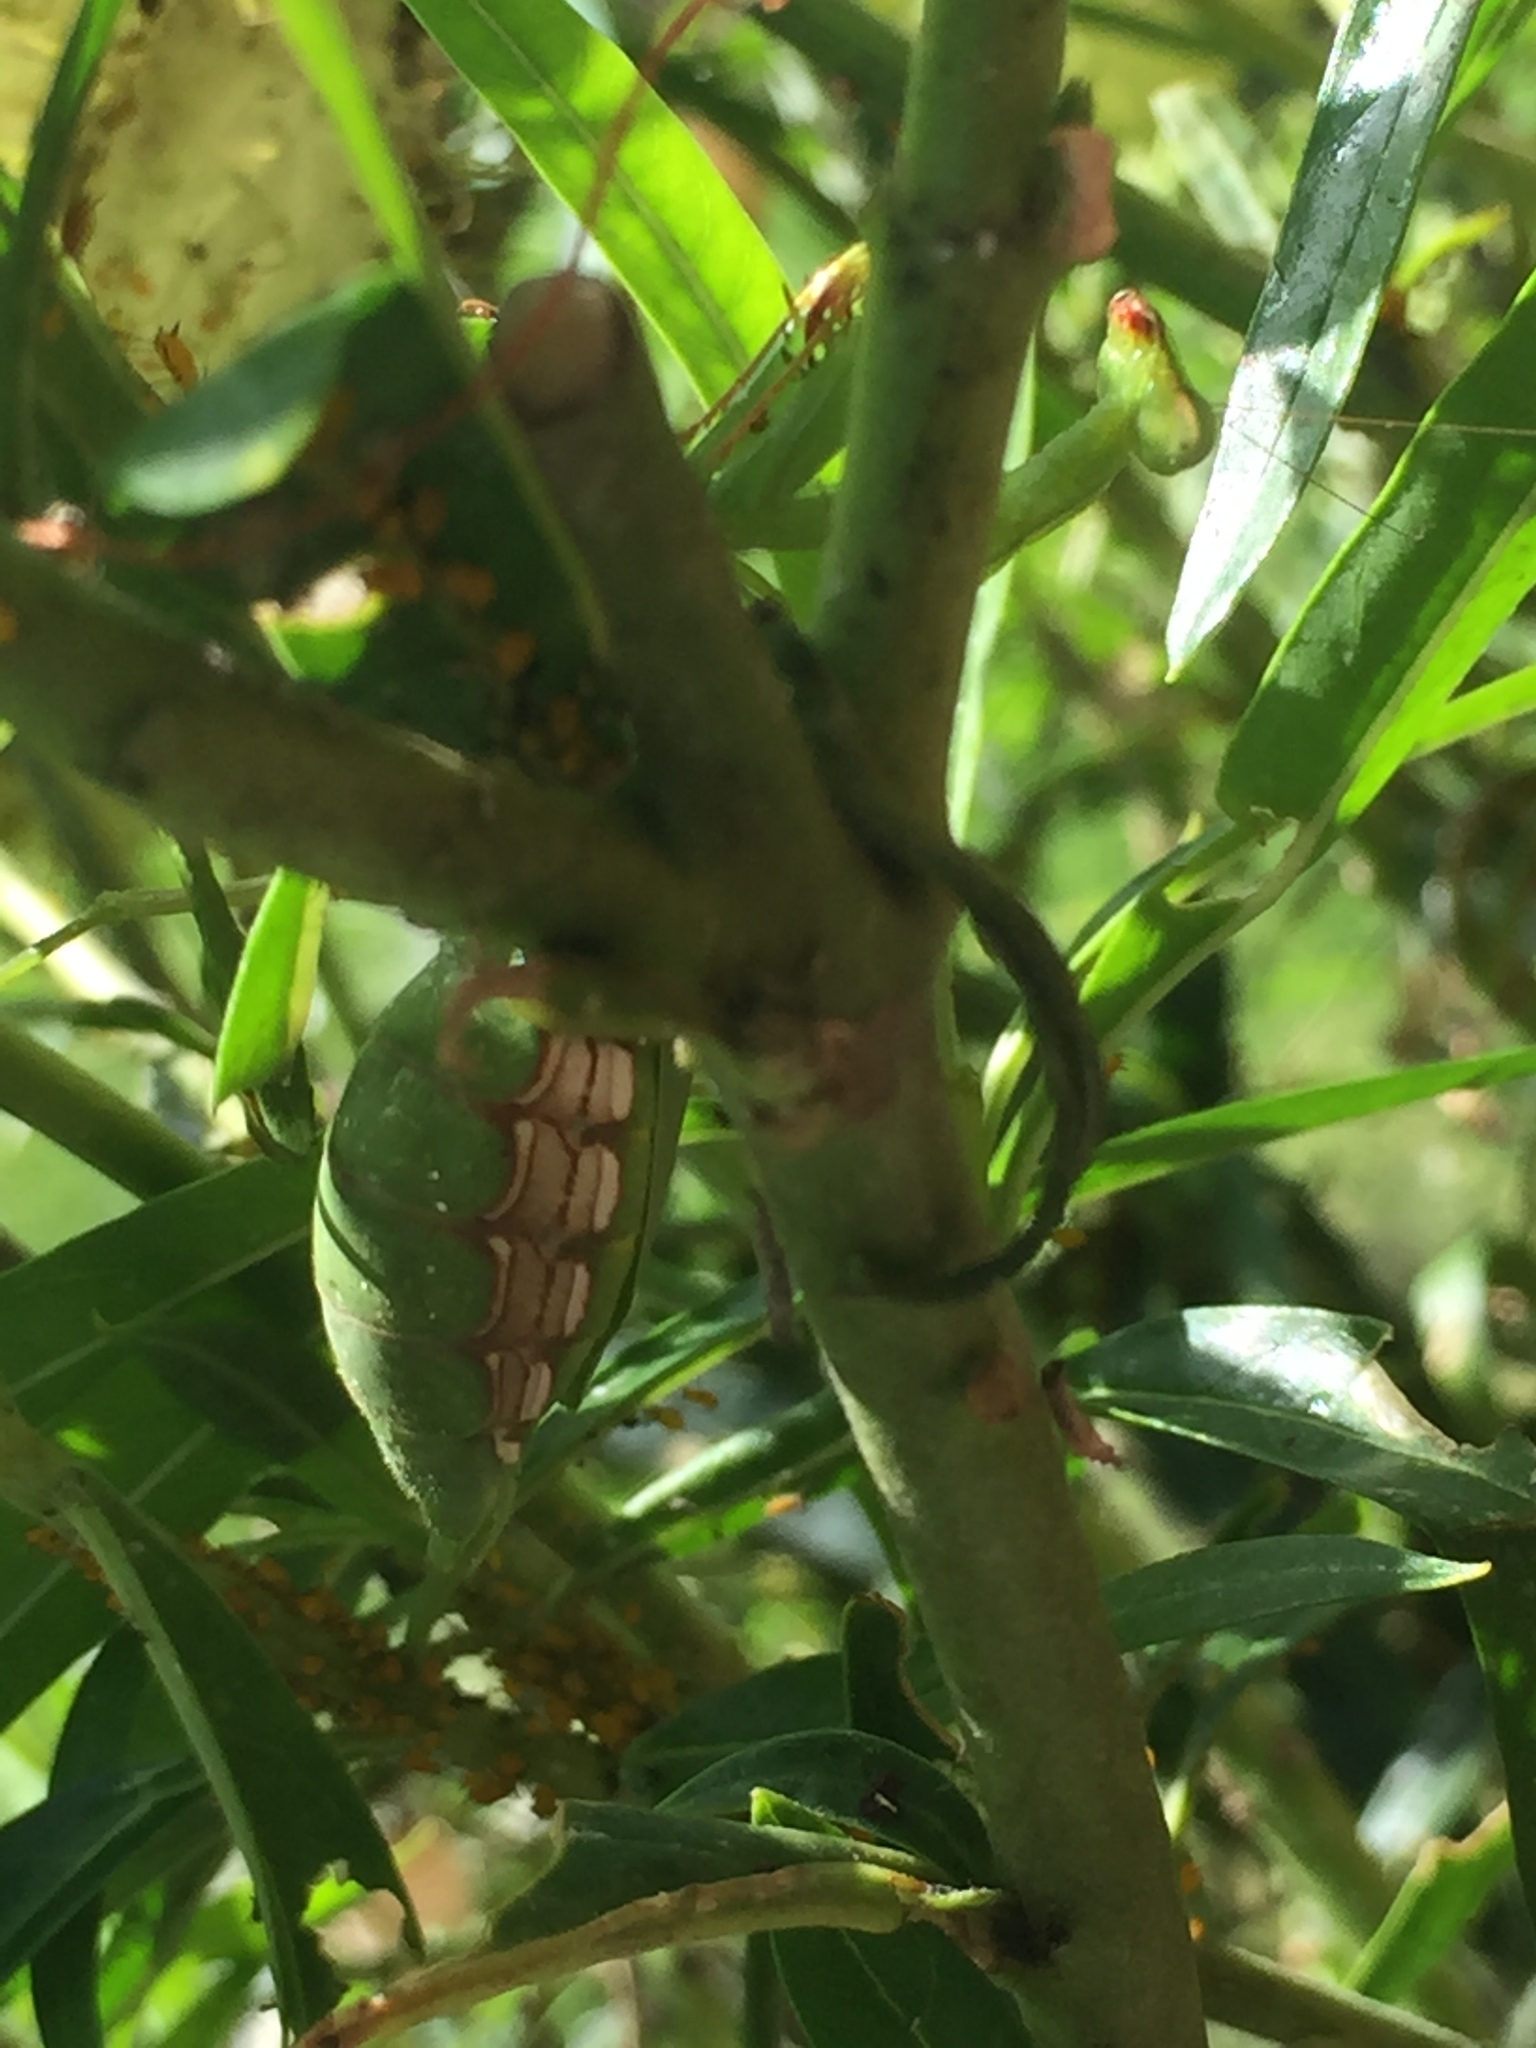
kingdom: Animalia
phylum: Arthropoda
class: Insecta
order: Mantodea
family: Miomantidae
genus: Miomantis
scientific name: Miomantis caffra
